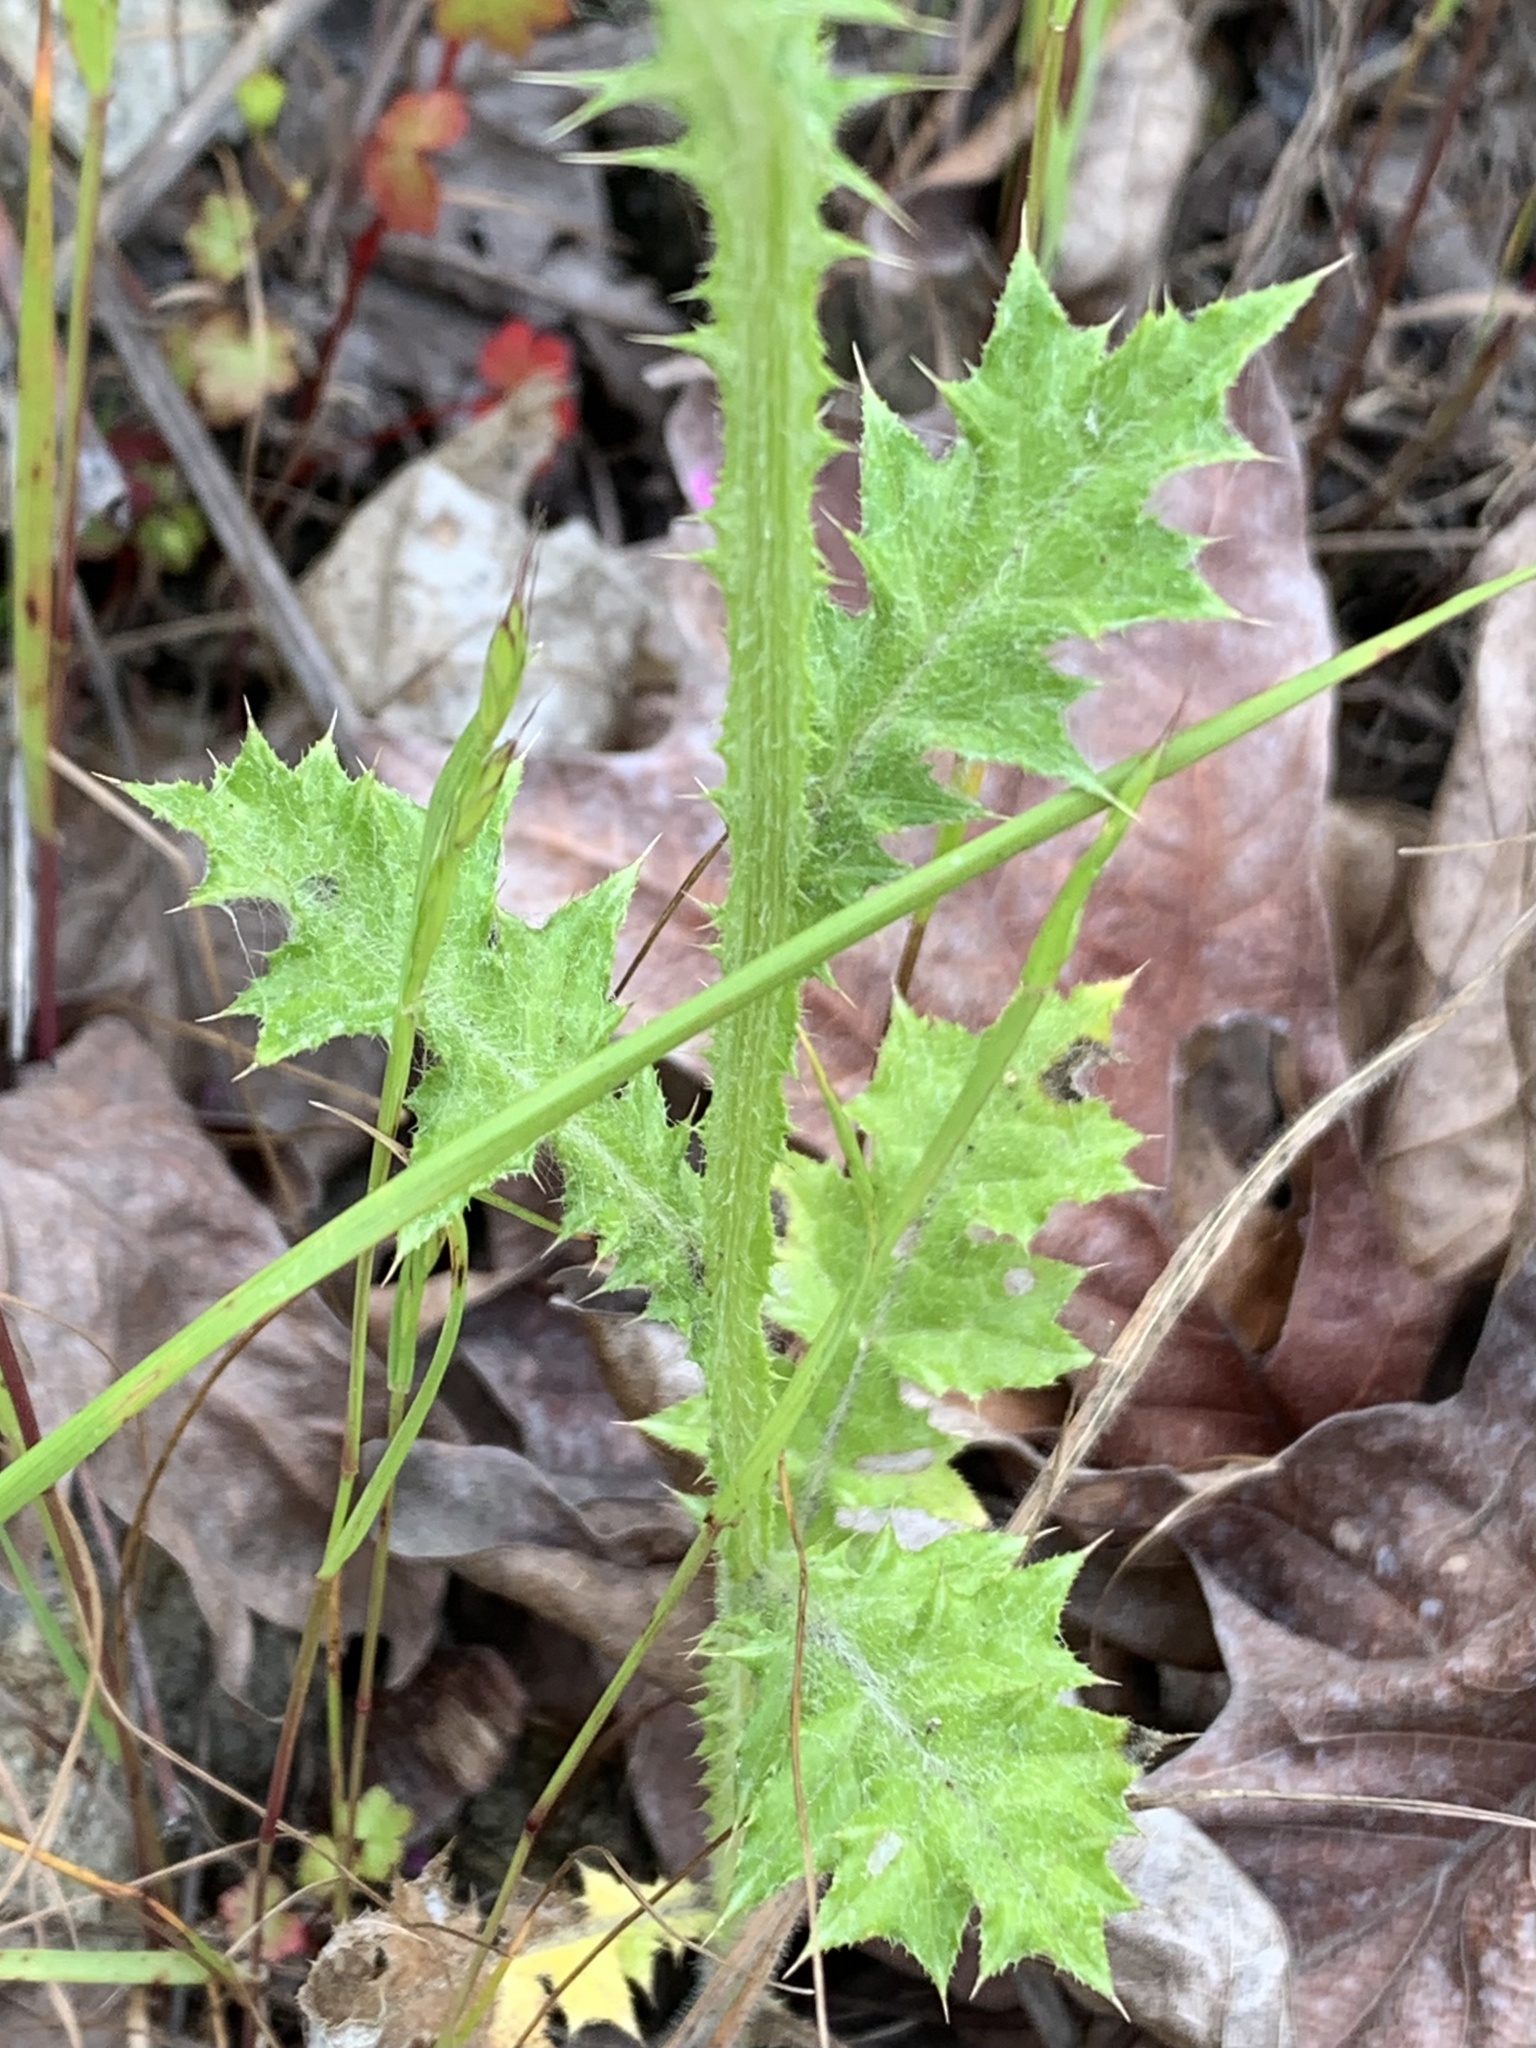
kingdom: Plantae
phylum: Tracheophyta
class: Magnoliopsida
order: Asterales
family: Asteraceae
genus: Carduus
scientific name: Carduus pycnocephalus
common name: Plymouth thistle
